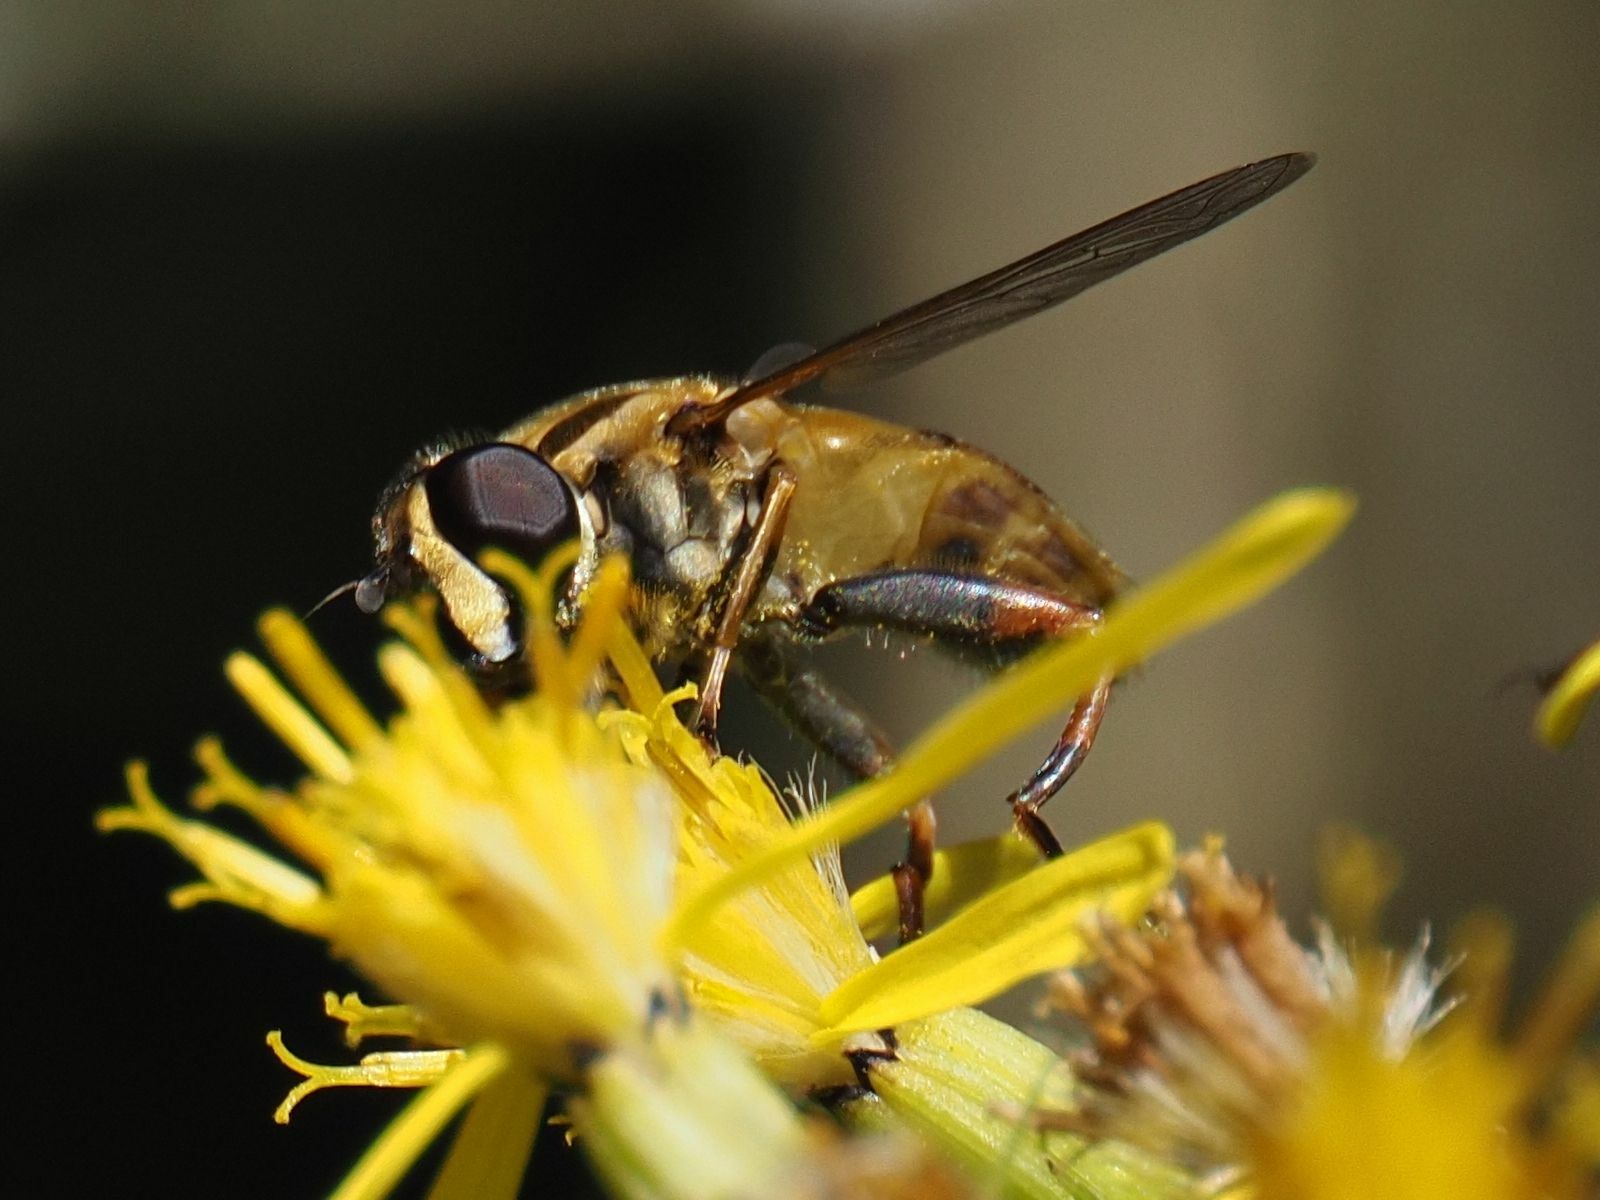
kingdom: Animalia
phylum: Arthropoda
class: Insecta
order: Diptera
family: Syrphidae
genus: Helophilus
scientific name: Helophilus pendulus
